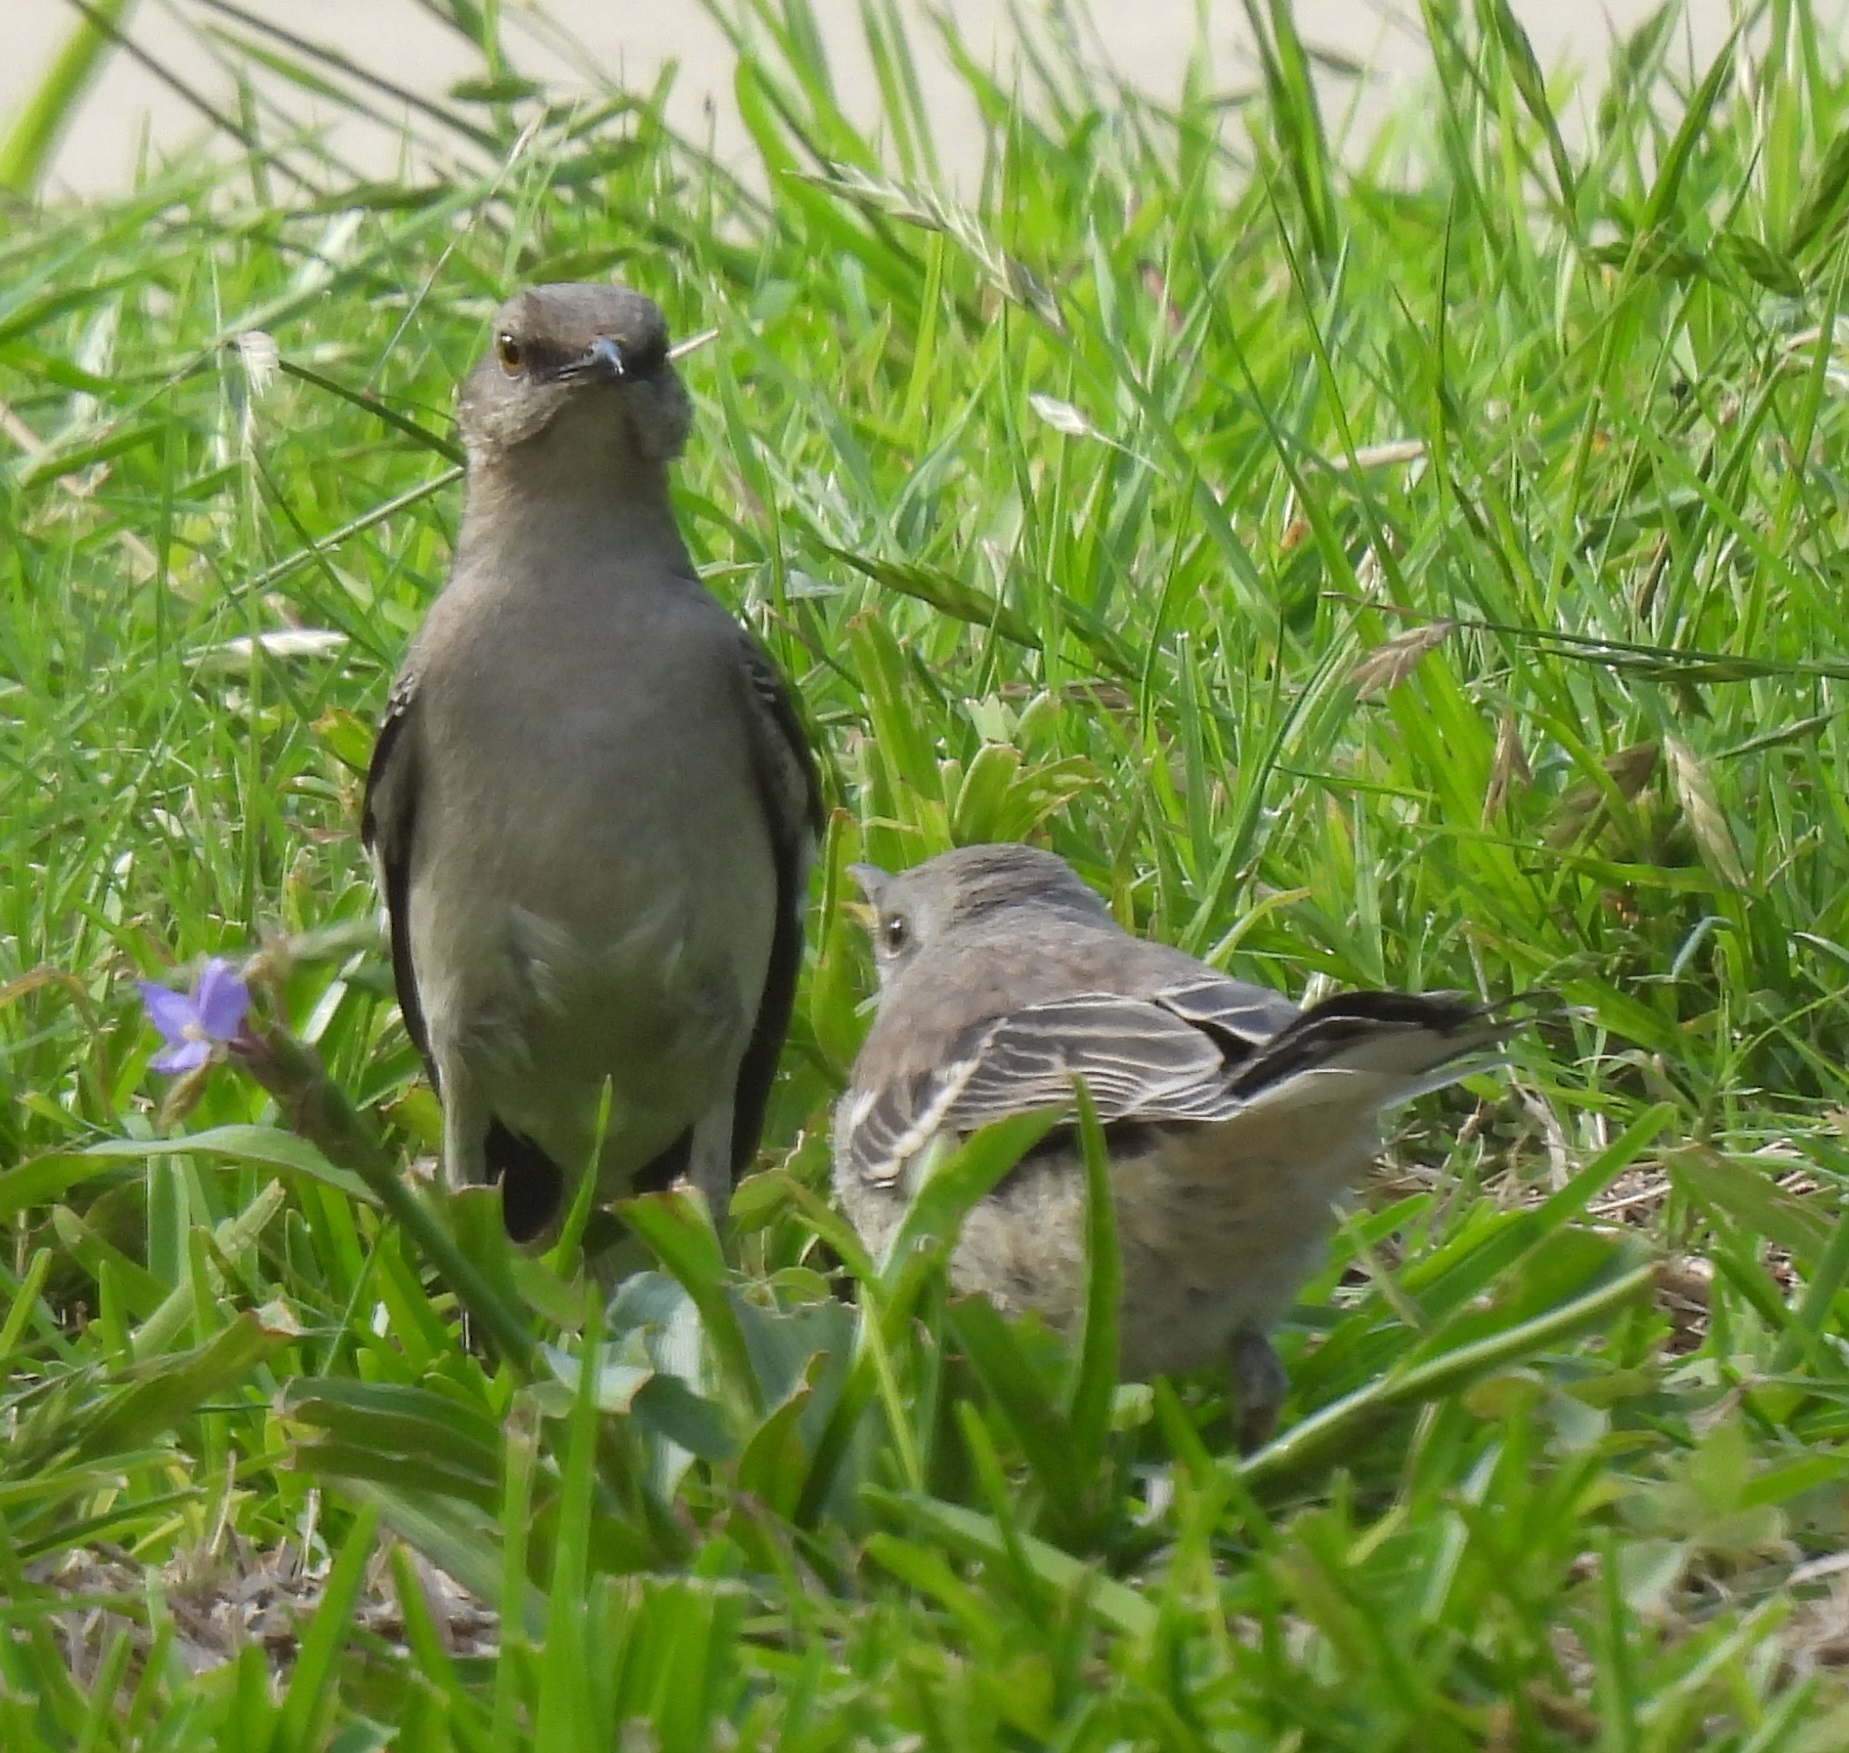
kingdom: Animalia
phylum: Chordata
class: Aves
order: Passeriformes
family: Mimidae
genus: Mimus
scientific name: Mimus polyglottos
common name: Northern mockingbird
